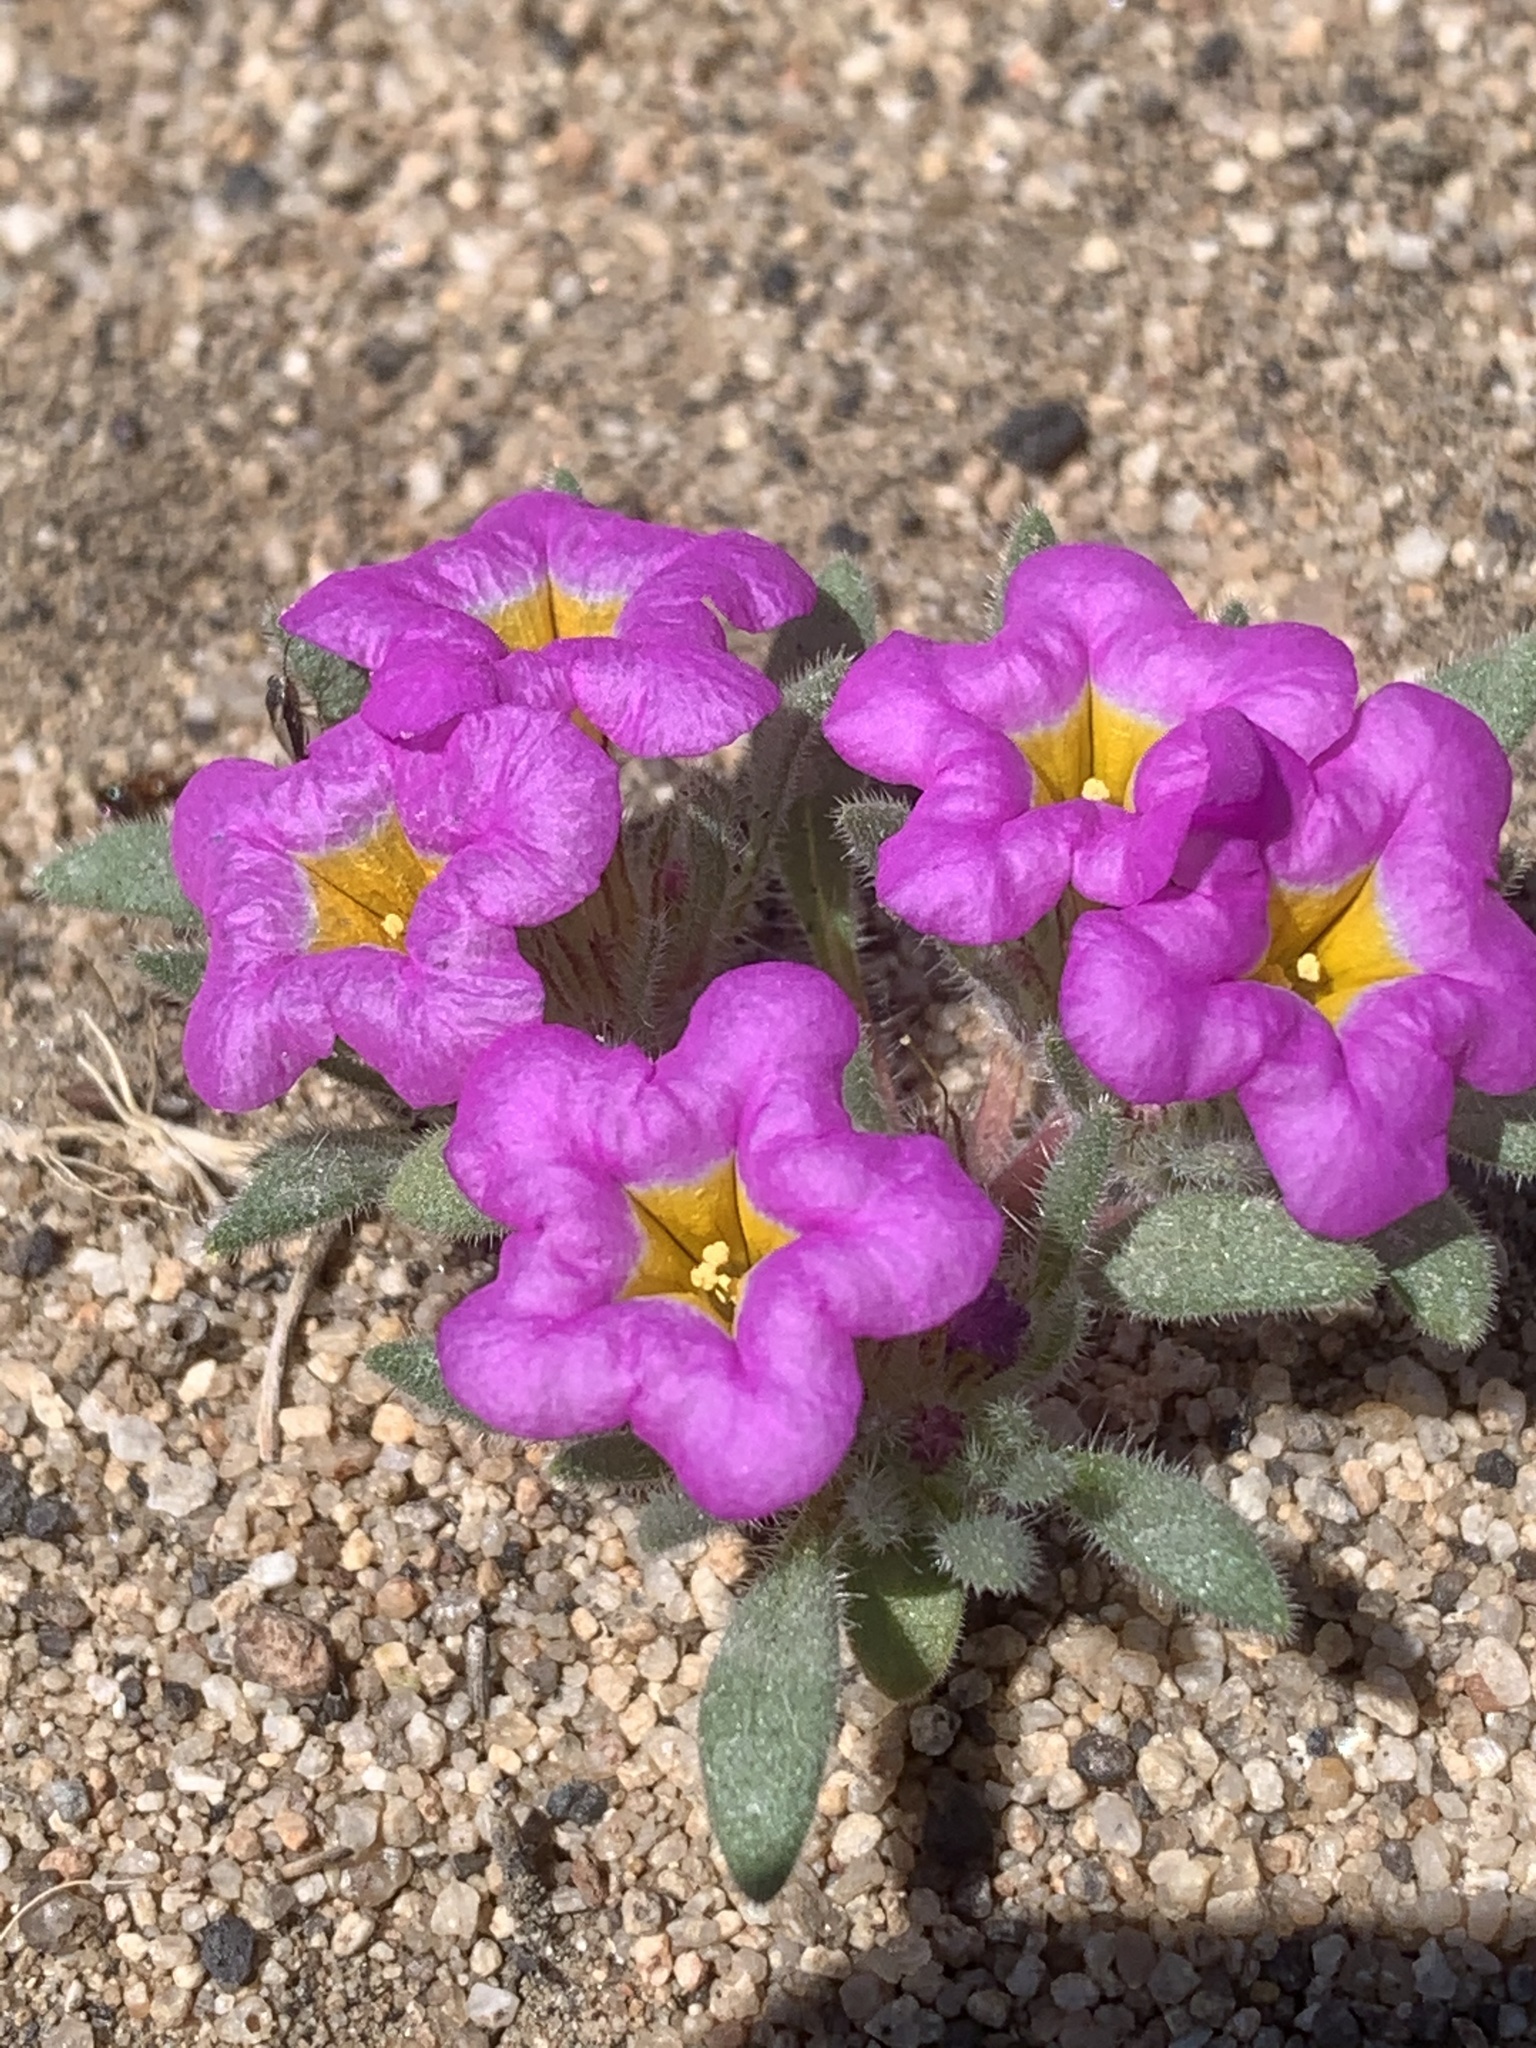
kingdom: Plantae
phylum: Tracheophyta
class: Magnoliopsida
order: Boraginales
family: Namaceae
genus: Nama
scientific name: Nama aretioides
